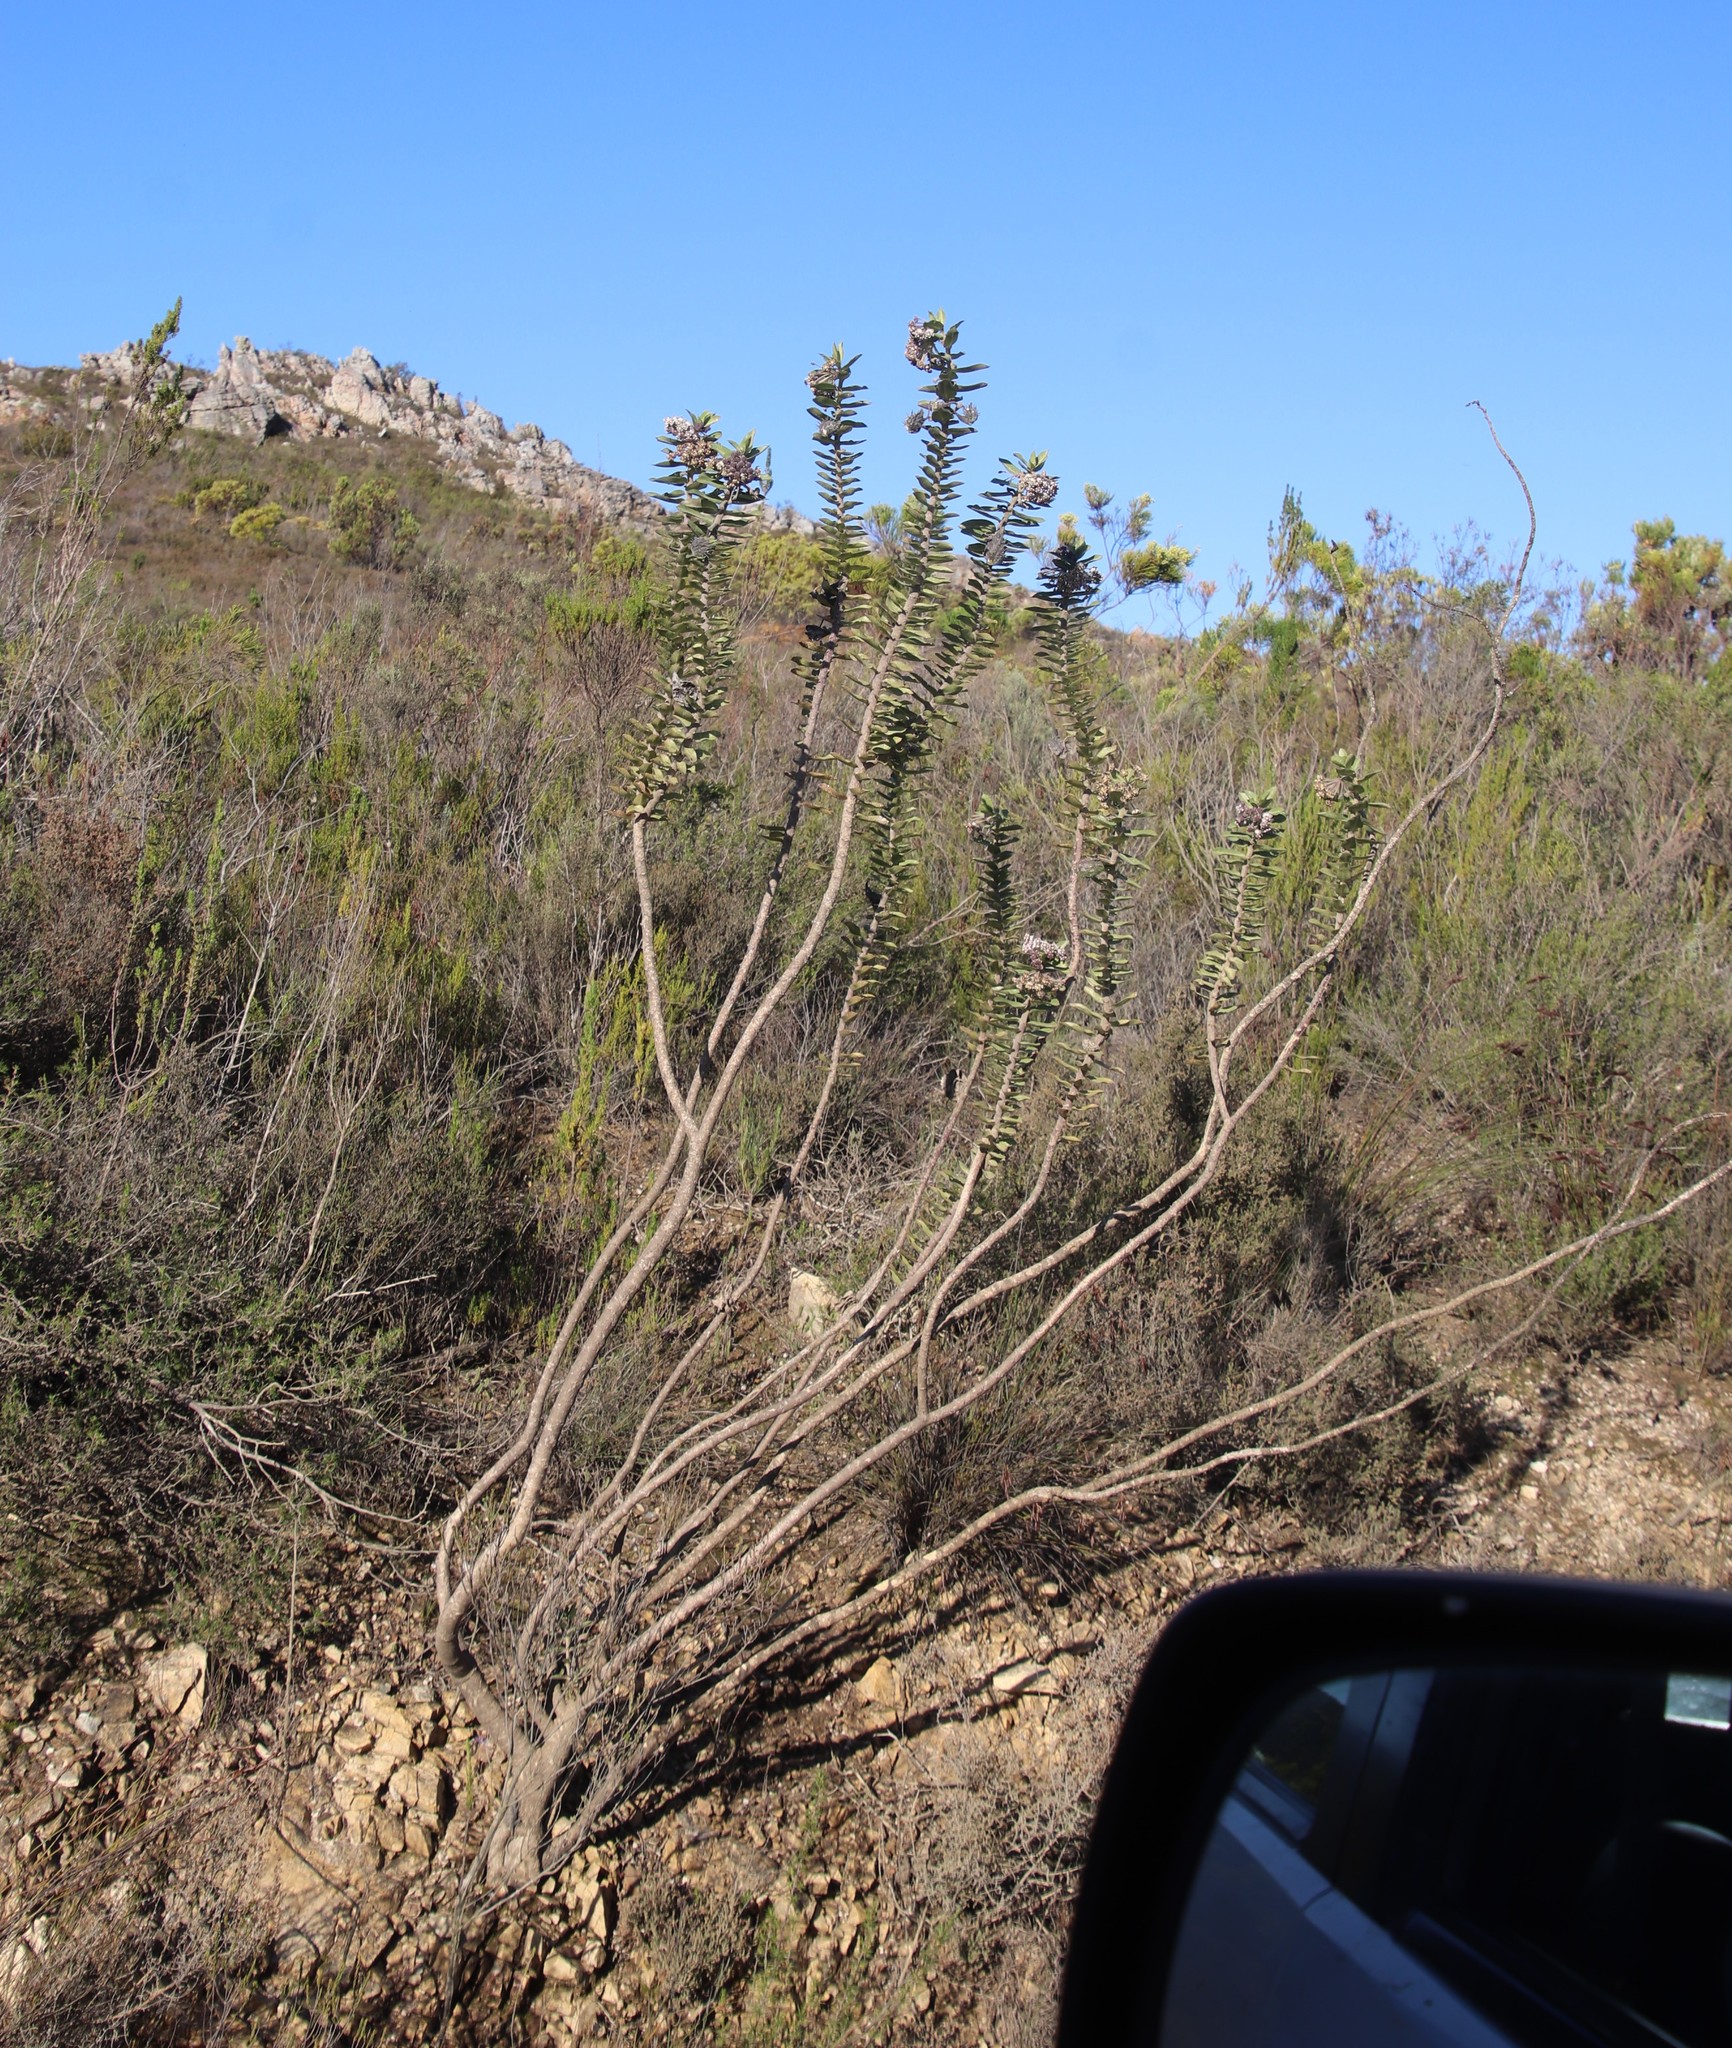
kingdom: Plantae
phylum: Tracheophyta
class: Magnoliopsida
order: Gentianales
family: Apocynaceae
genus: Gomphocarpus
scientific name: Gomphocarpus cancellatus
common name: Wild cotton
